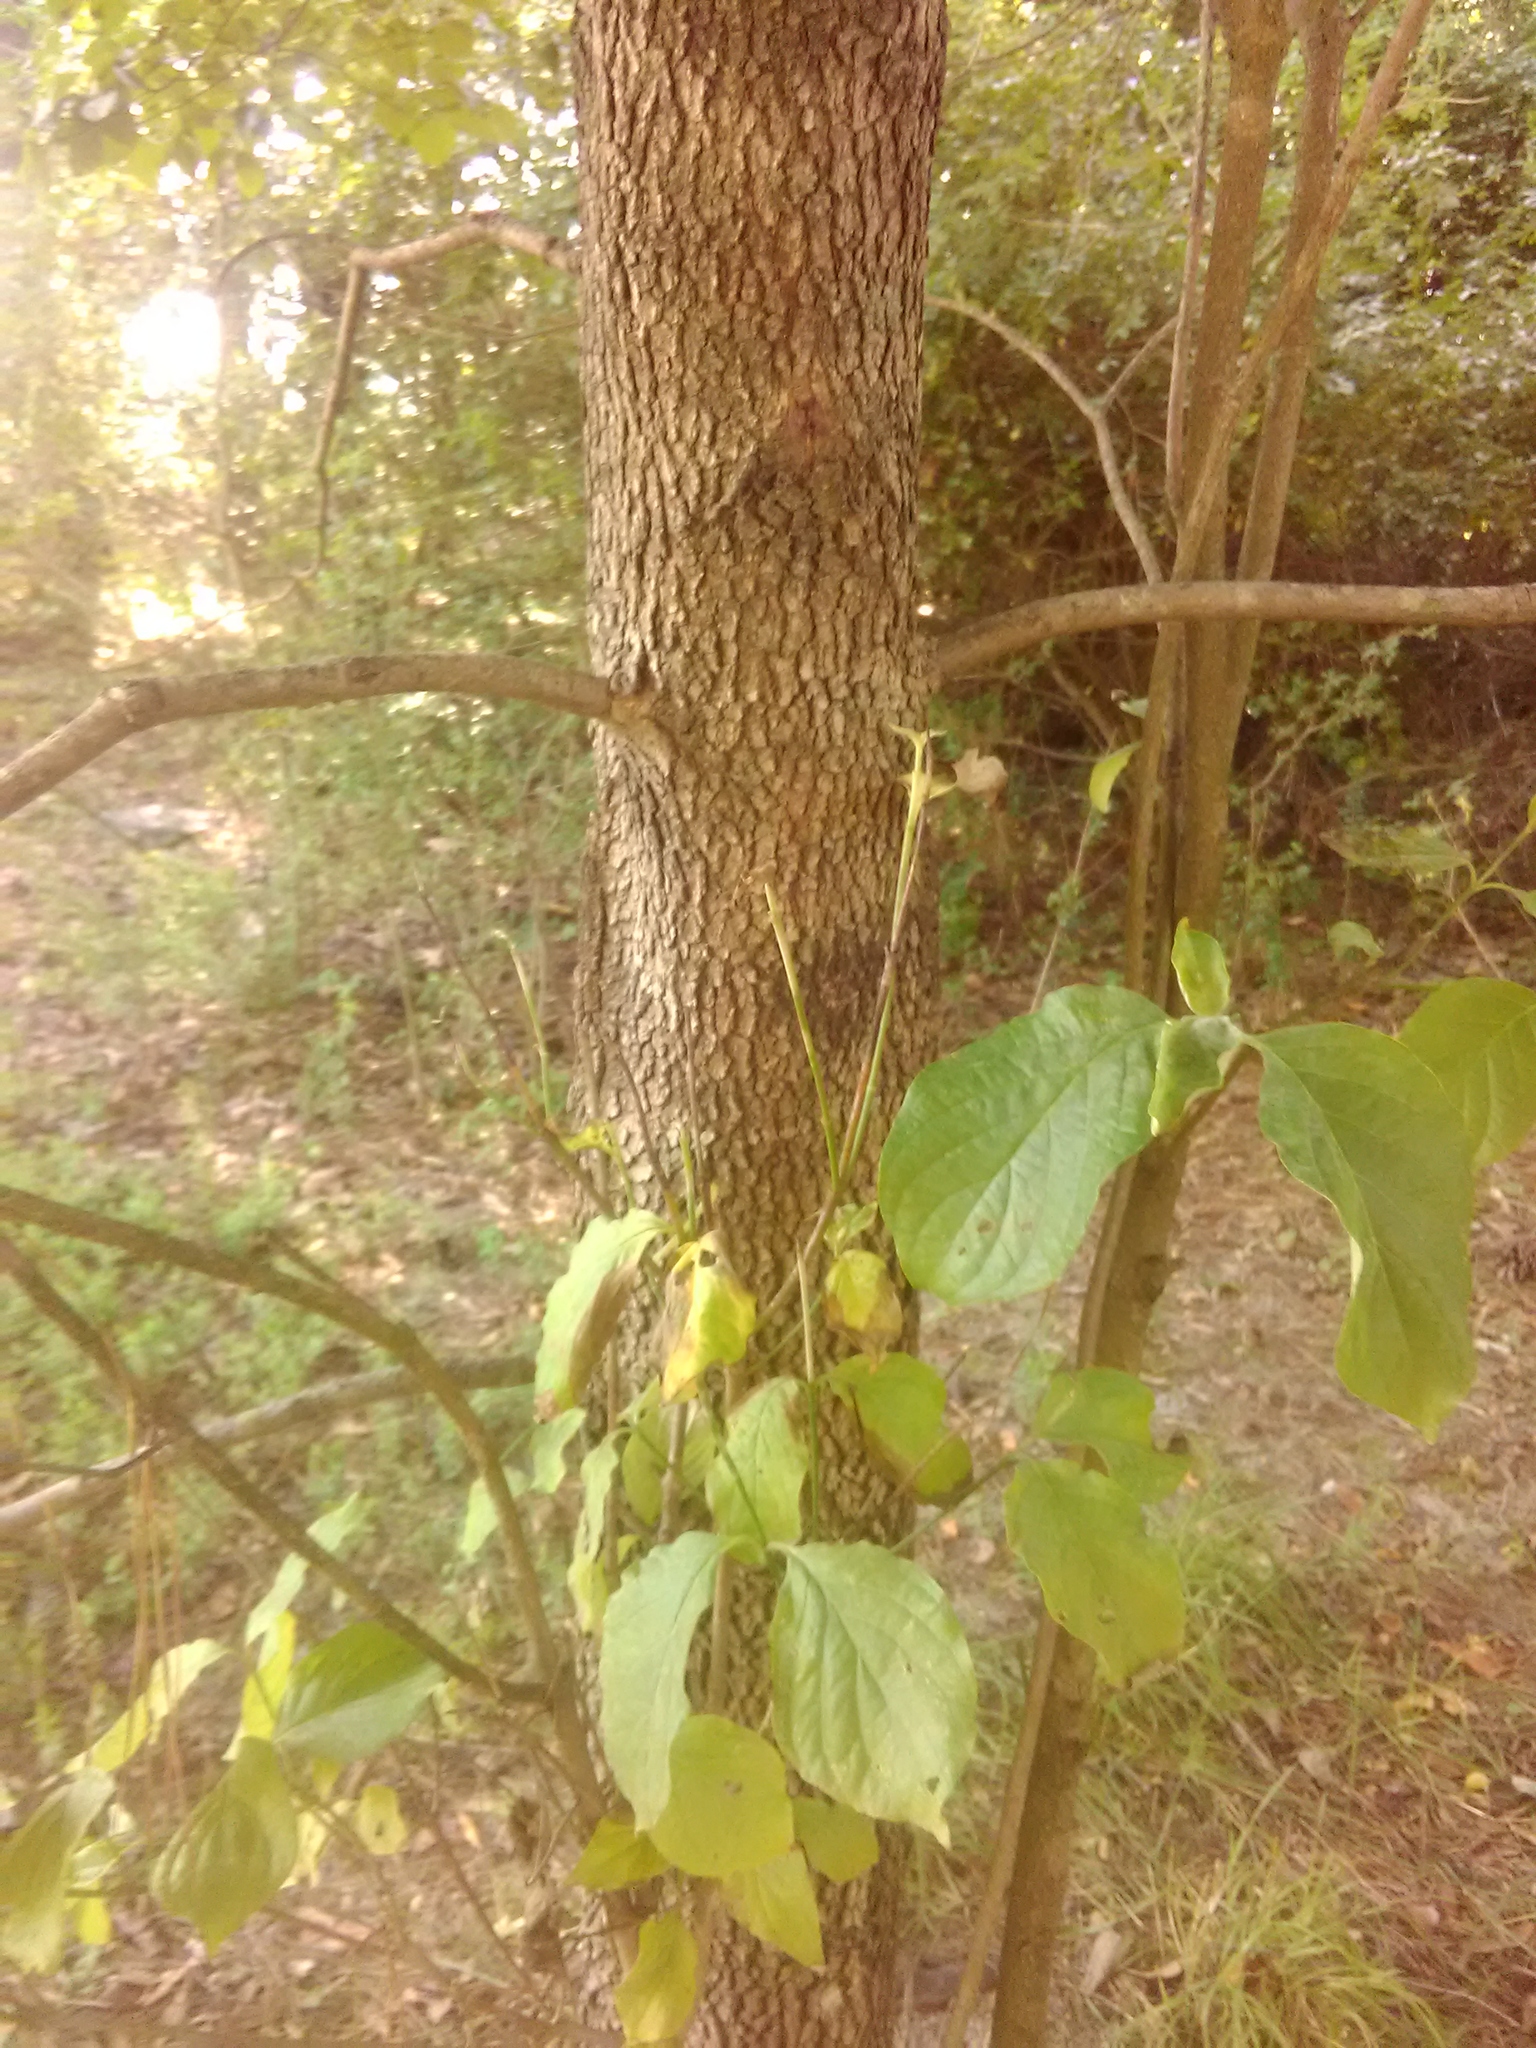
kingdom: Plantae
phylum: Tracheophyta
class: Magnoliopsida
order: Cornales
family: Cornaceae
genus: Cornus
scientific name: Cornus florida
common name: Flowering dogwood
